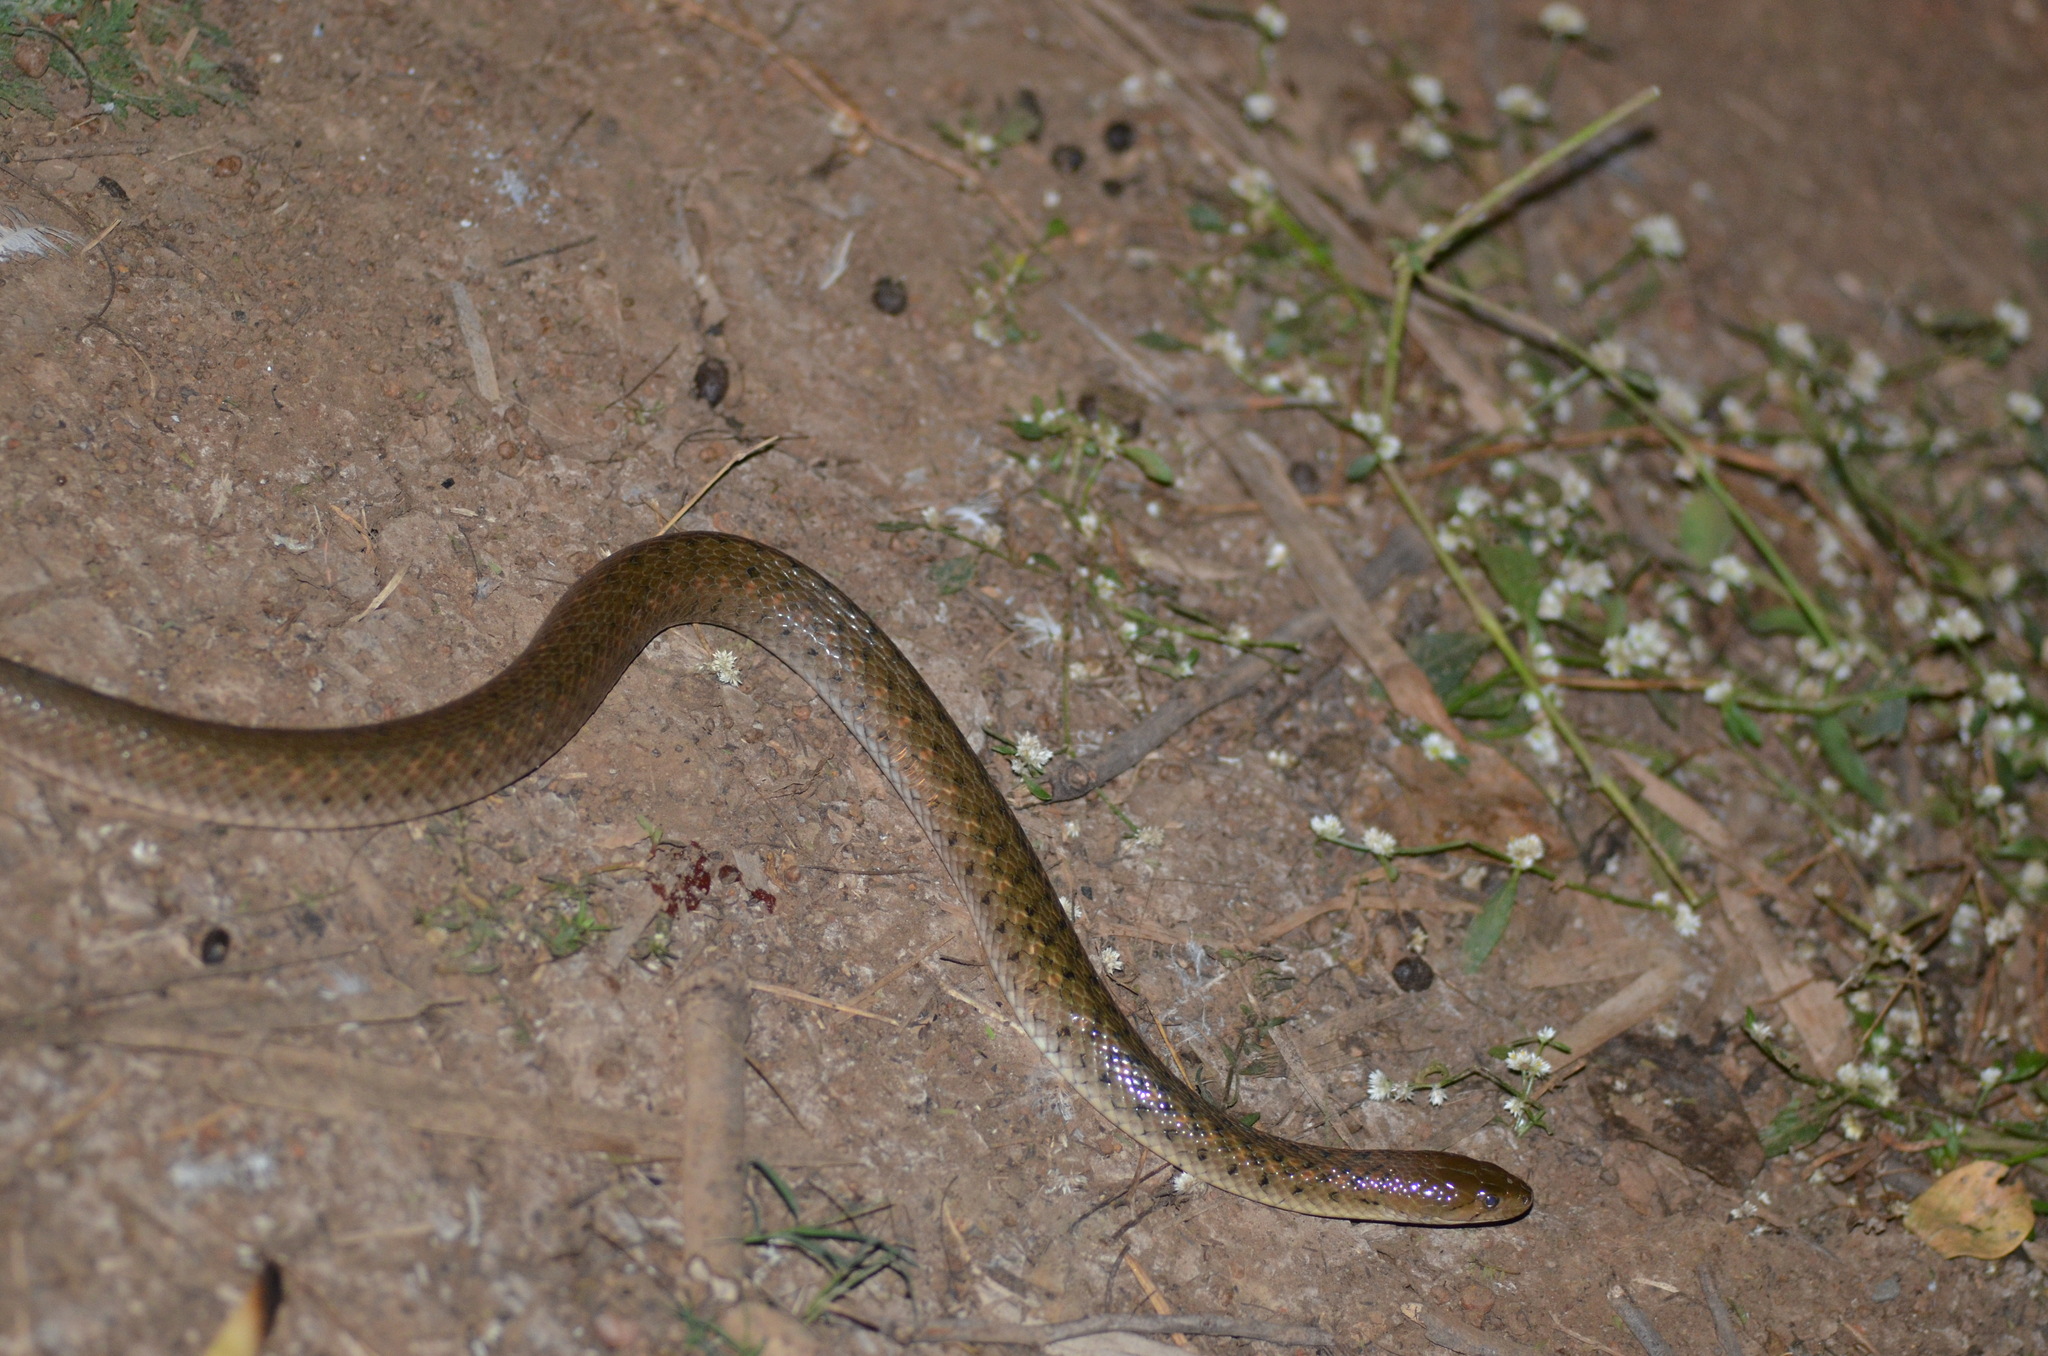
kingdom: Animalia
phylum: Chordata
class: Squamata
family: Colubridae
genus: Fowlea
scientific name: Fowlea piscator
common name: Asiatic water snake
